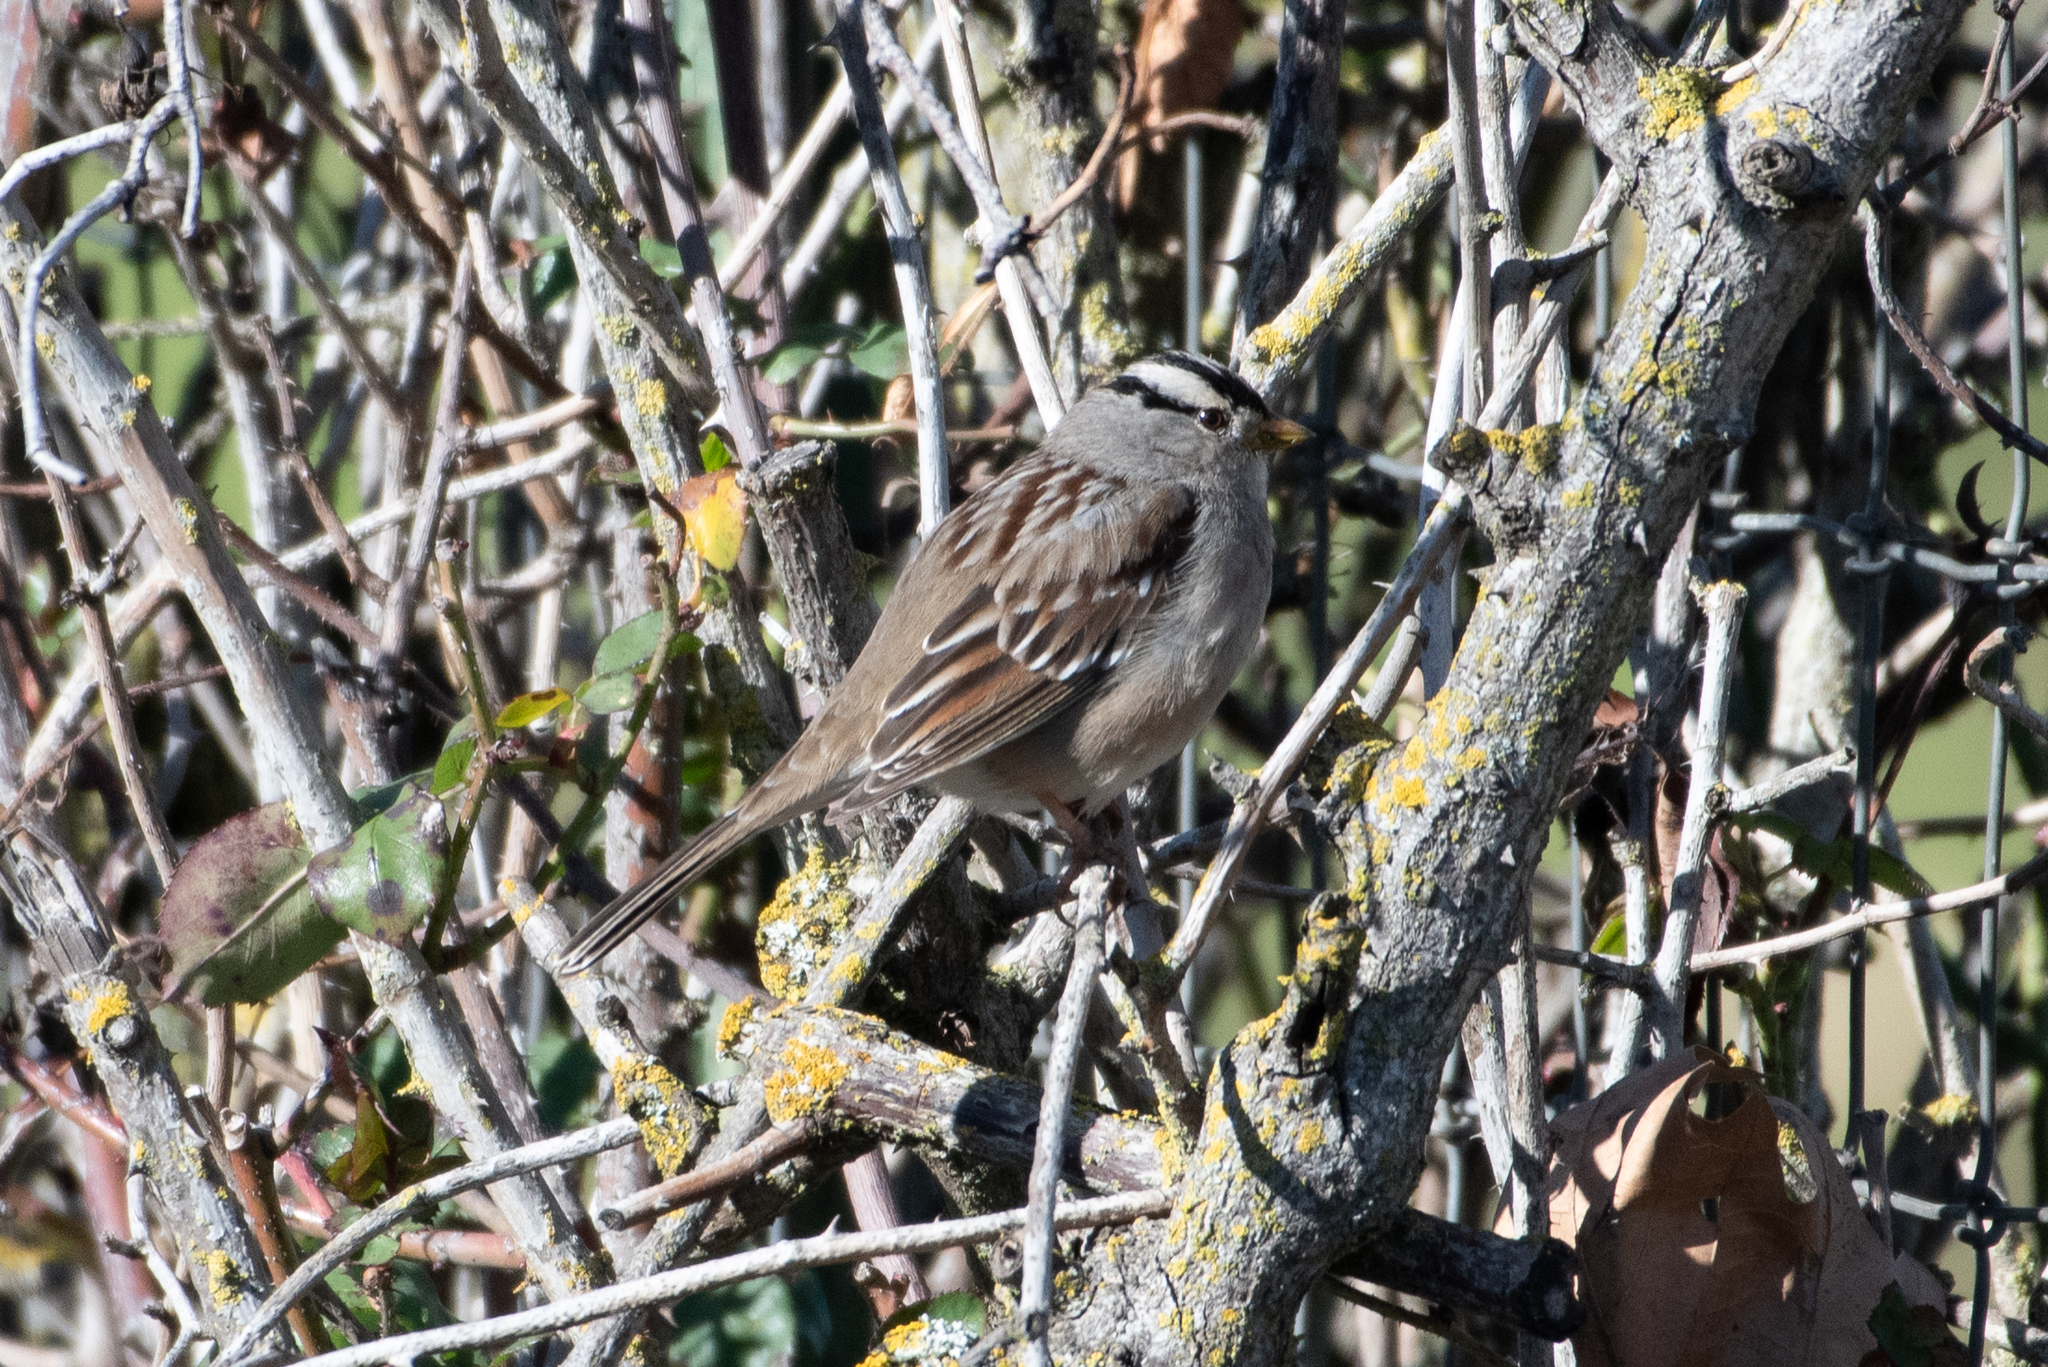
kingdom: Animalia
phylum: Chordata
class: Aves
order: Passeriformes
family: Passerellidae
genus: Zonotrichia
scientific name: Zonotrichia leucophrys
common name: White-crowned sparrow
